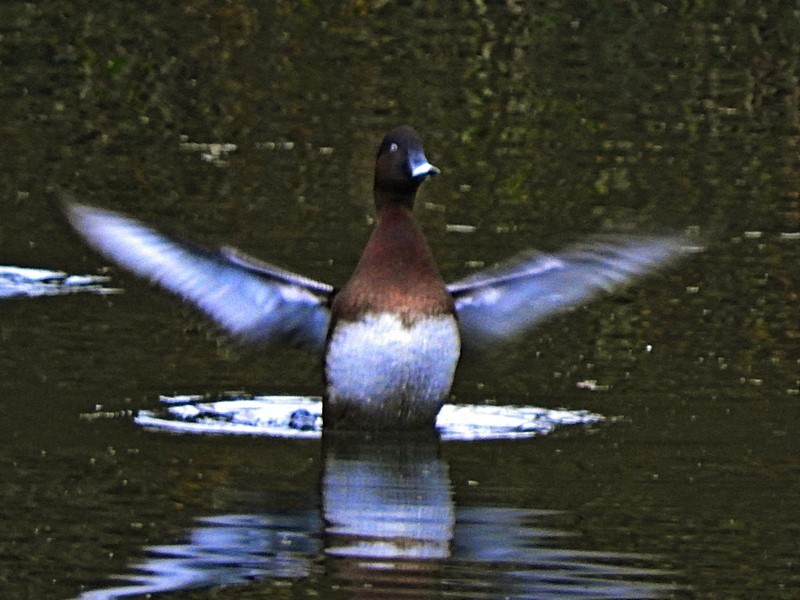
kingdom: Animalia
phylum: Chordata
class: Aves
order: Anseriformes
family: Anatidae
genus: Aythya
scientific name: Aythya australis
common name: Hardhead
